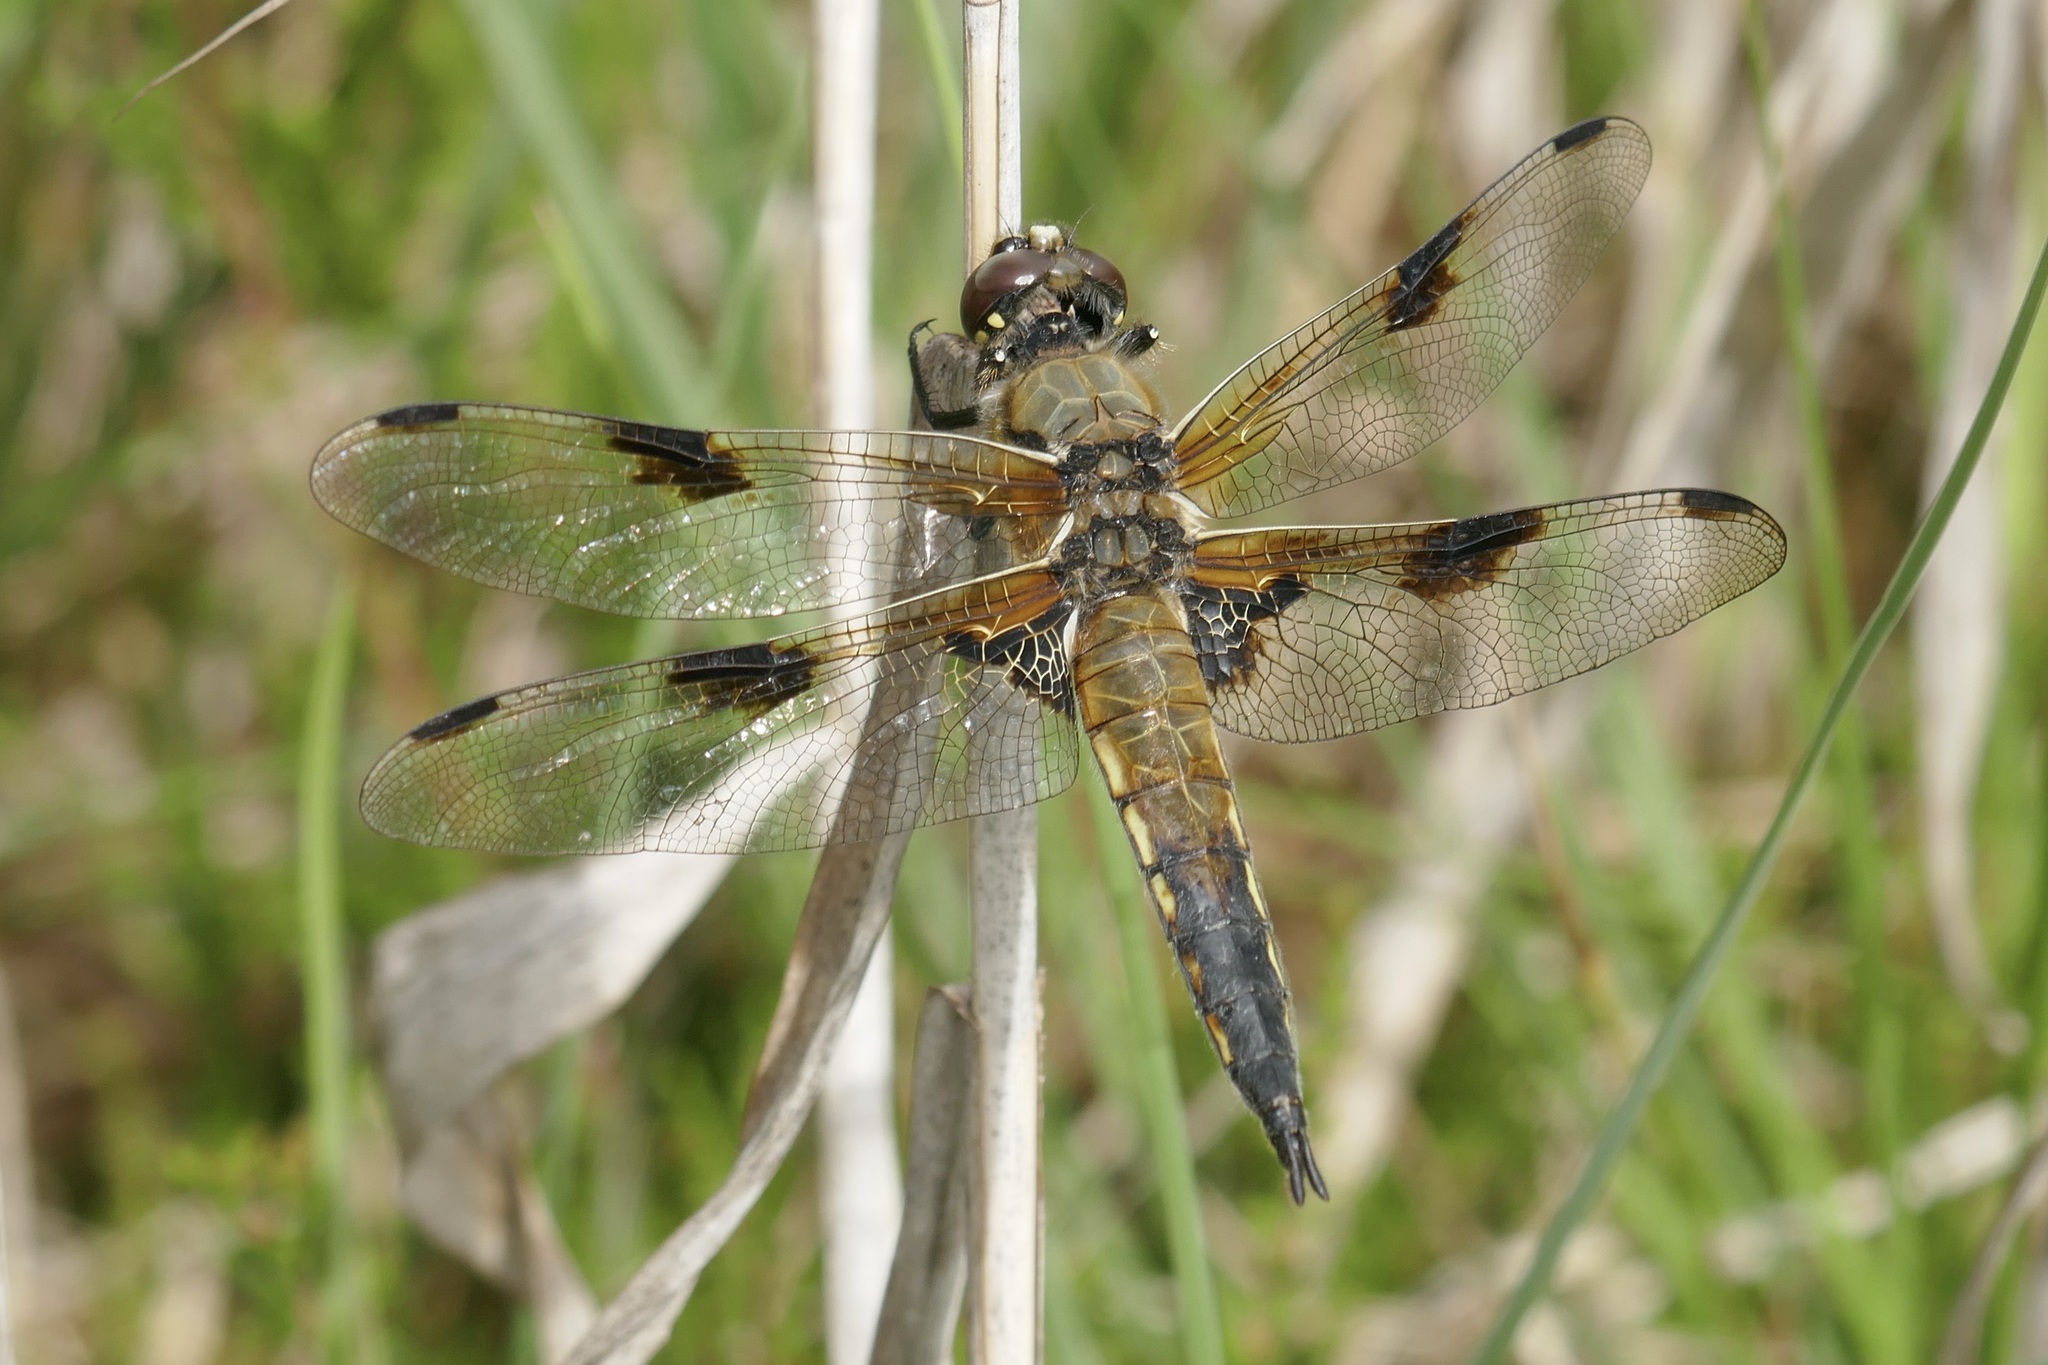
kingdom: Animalia
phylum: Arthropoda
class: Insecta
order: Odonata
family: Libellulidae
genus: Libellula
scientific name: Libellula quadrimaculata
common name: Four-spotted chaser
